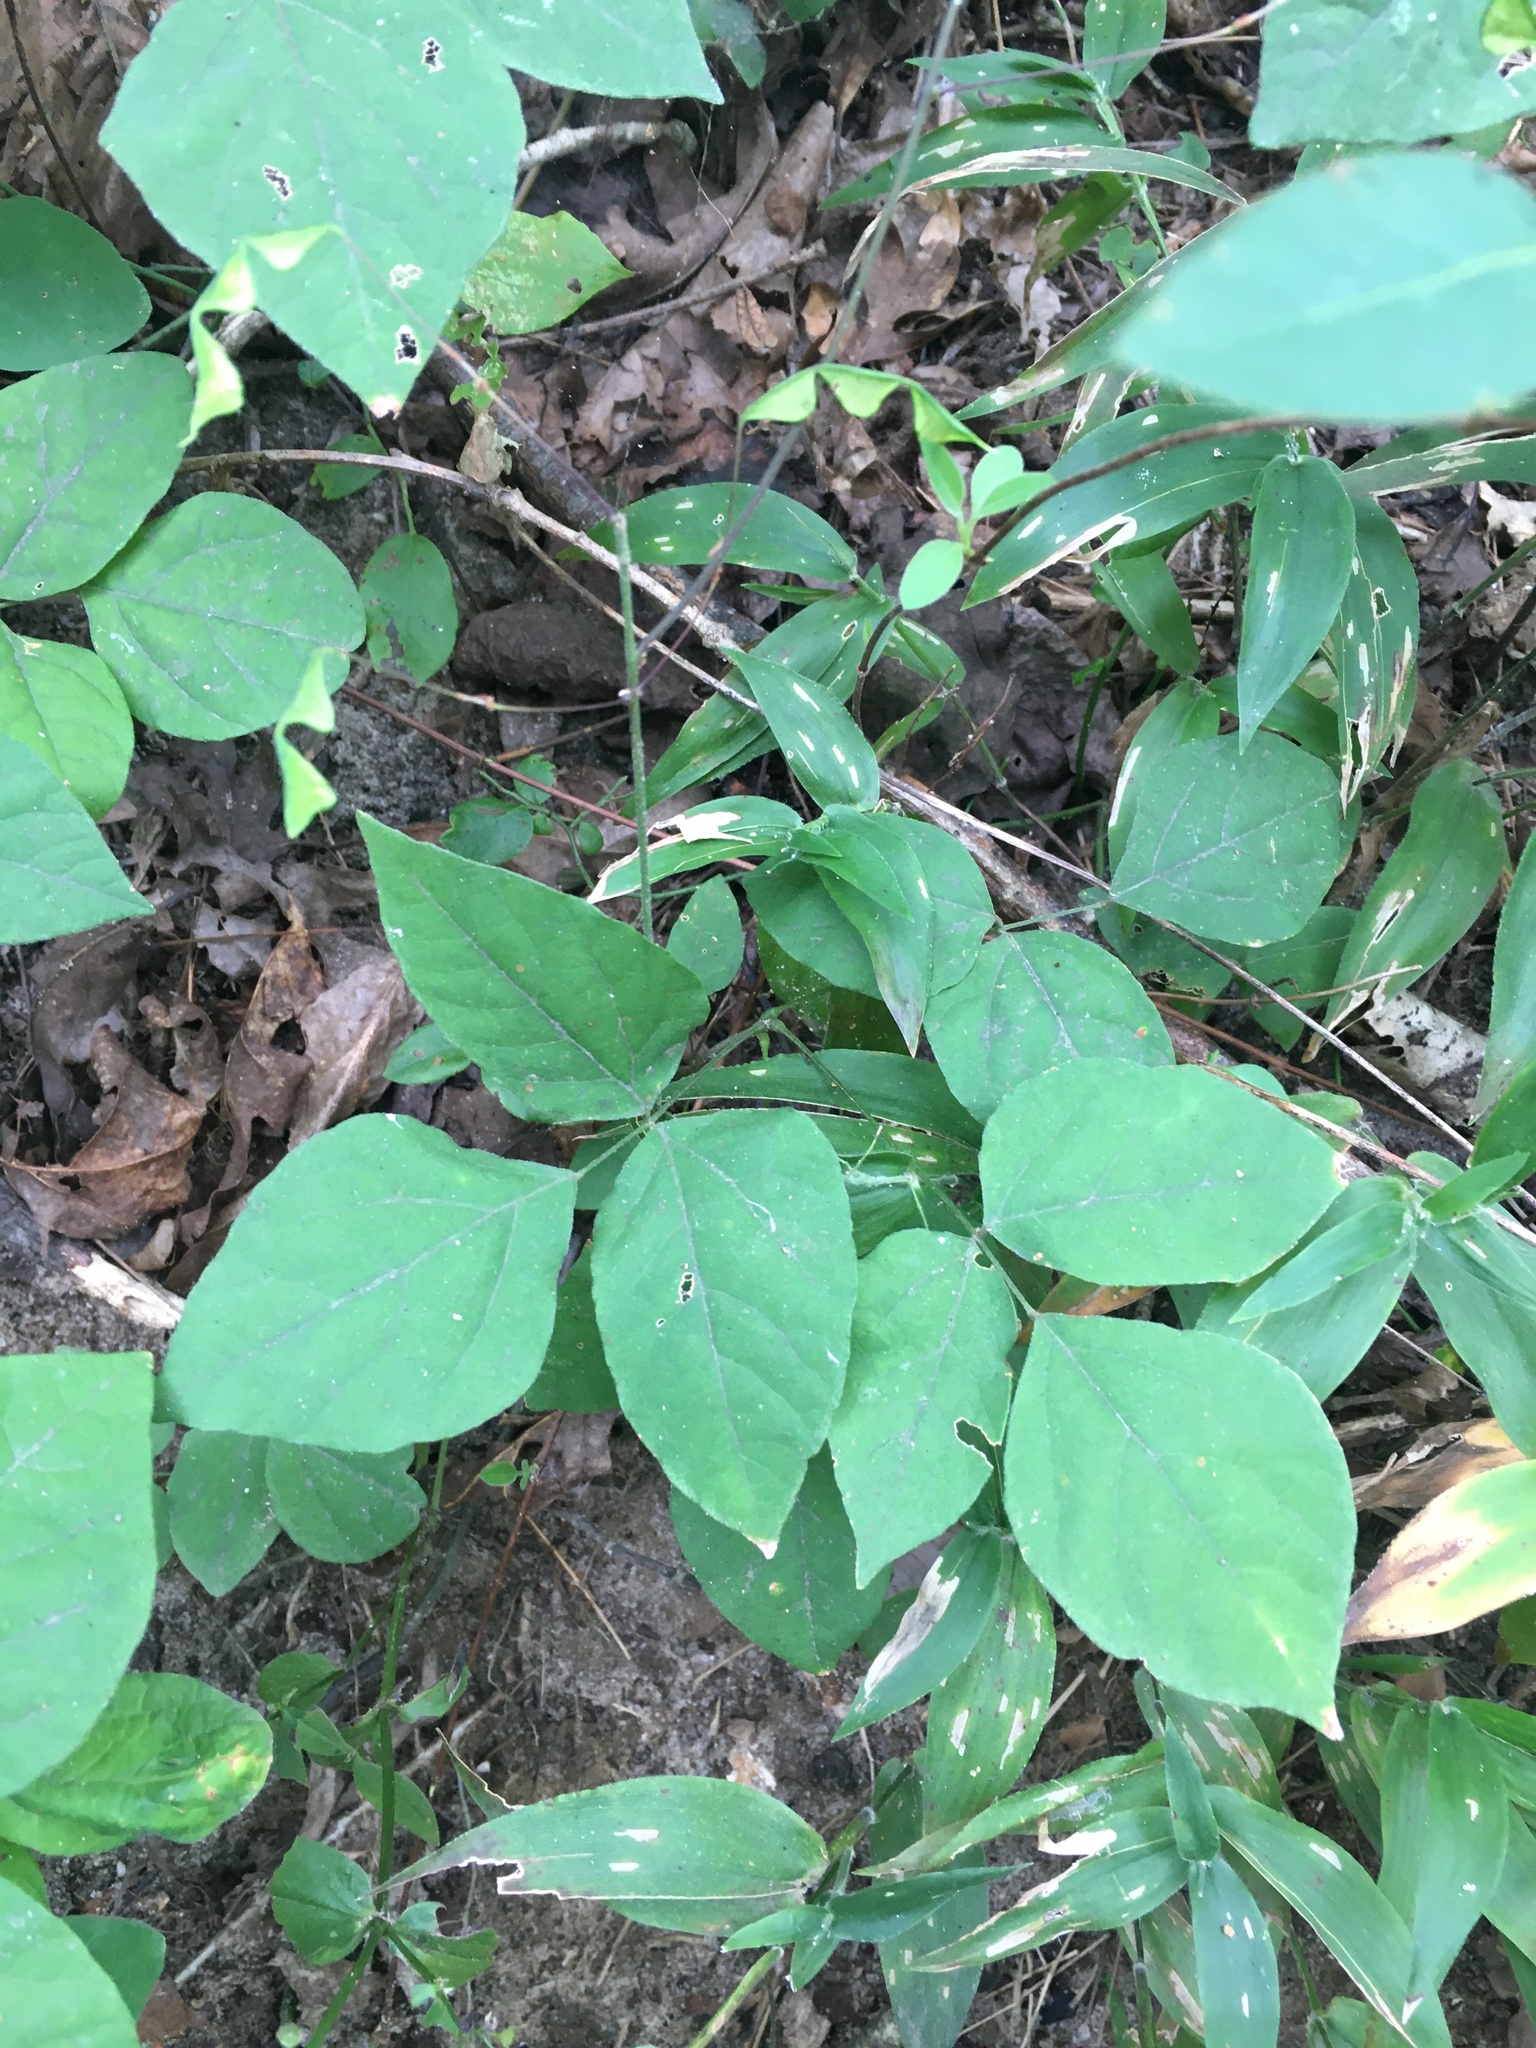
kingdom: Plantae
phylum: Tracheophyta
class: Magnoliopsida
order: Fabales
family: Fabaceae
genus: Hylodesmum
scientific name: Hylodesmum nudiflorum
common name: Bare-stemmed tick-trefoil
